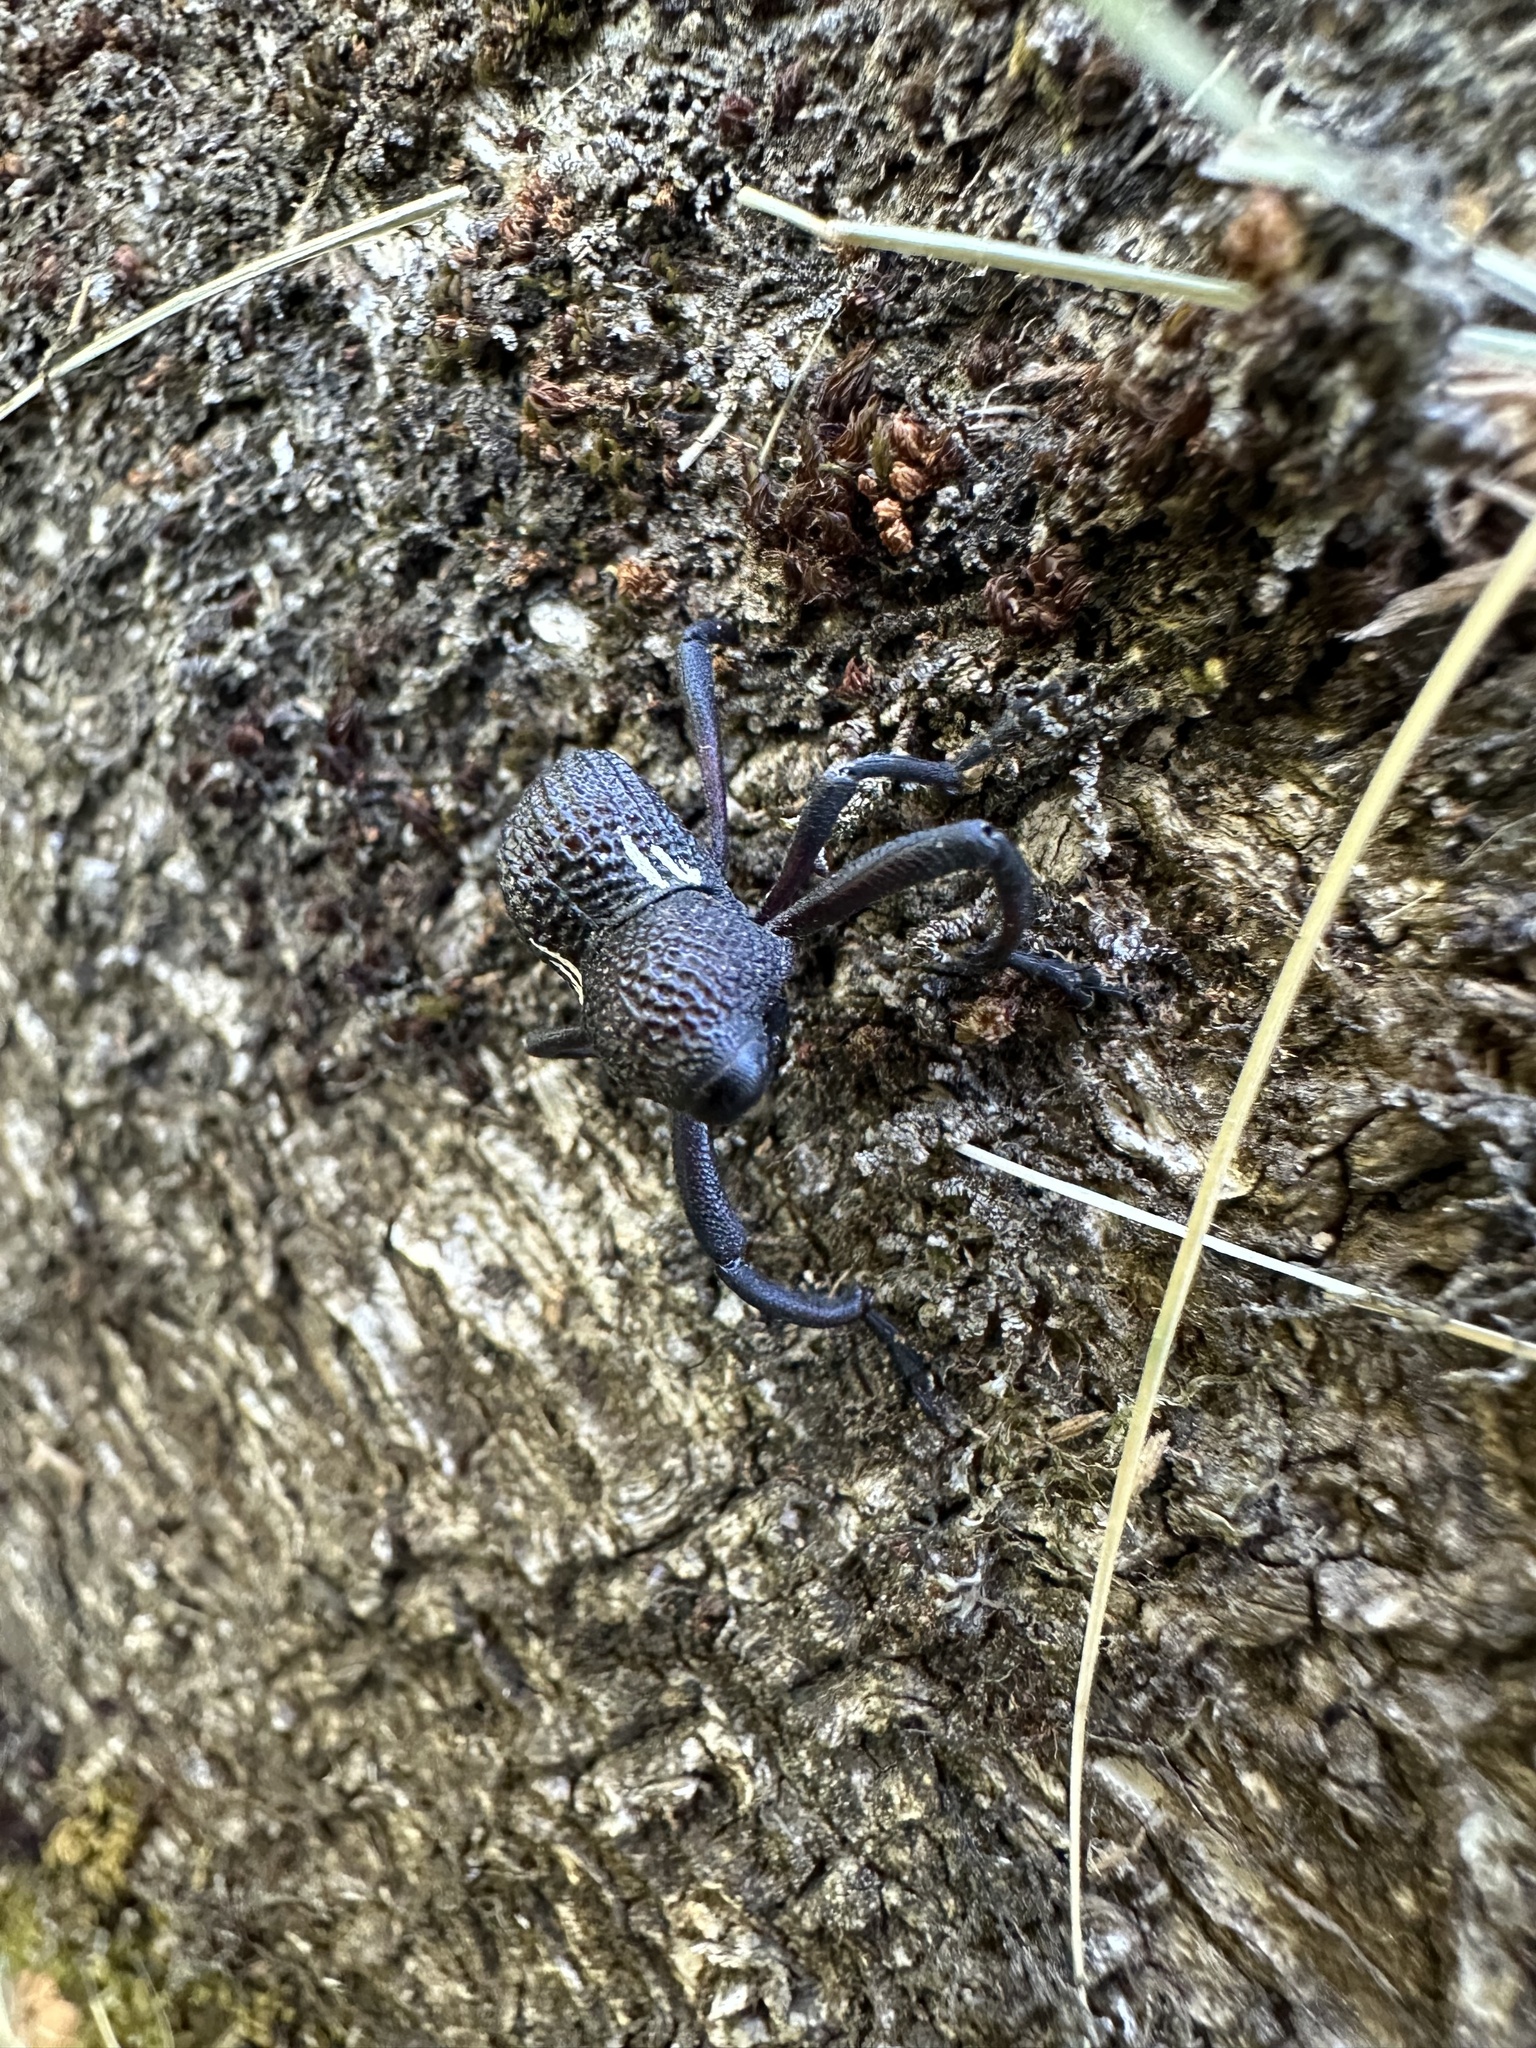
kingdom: Animalia
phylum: Arthropoda
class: Insecta
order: Coleoptera
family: Curculionidae
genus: Rhyephenes
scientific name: Rhyephenes humeralis
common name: Araè±ita chilena del pino
